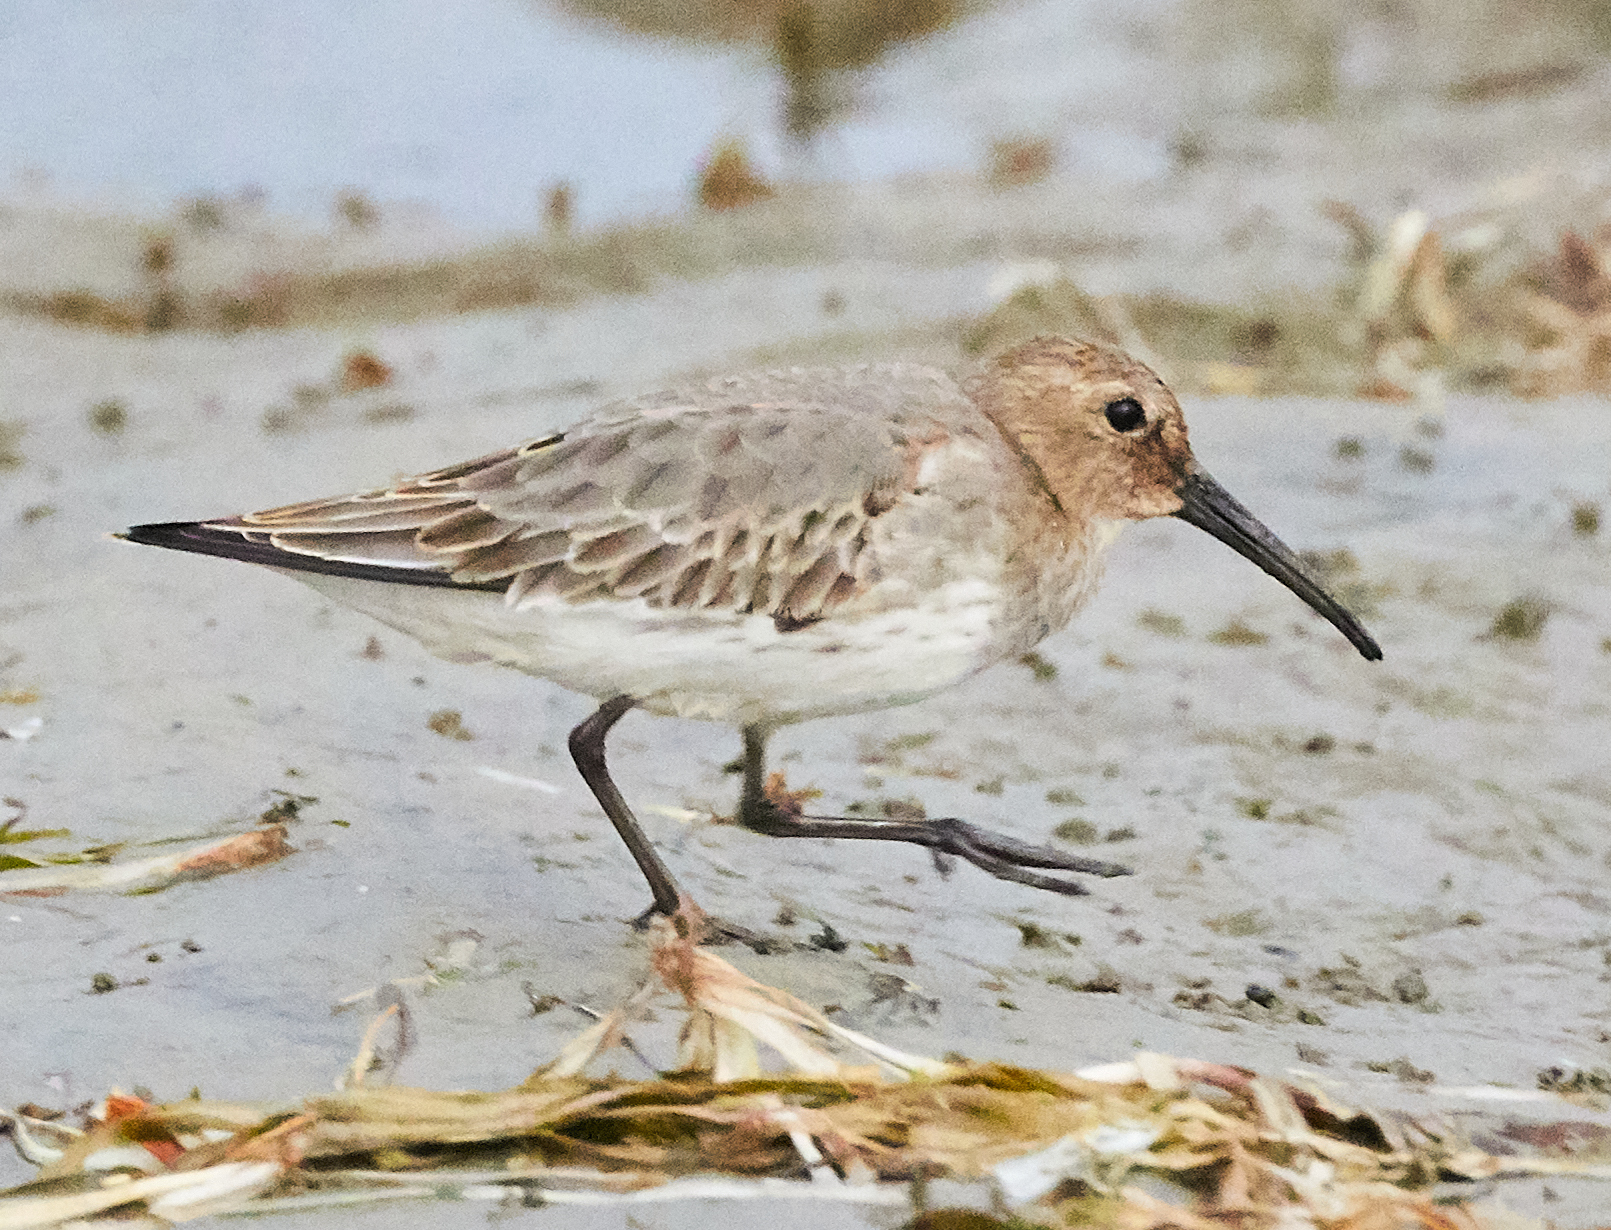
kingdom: Animalia
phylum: Chordata
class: Aves
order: Charadriiformes
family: Scolopacidae
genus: Calidris
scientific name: Calidris alpina
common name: Dunlin
